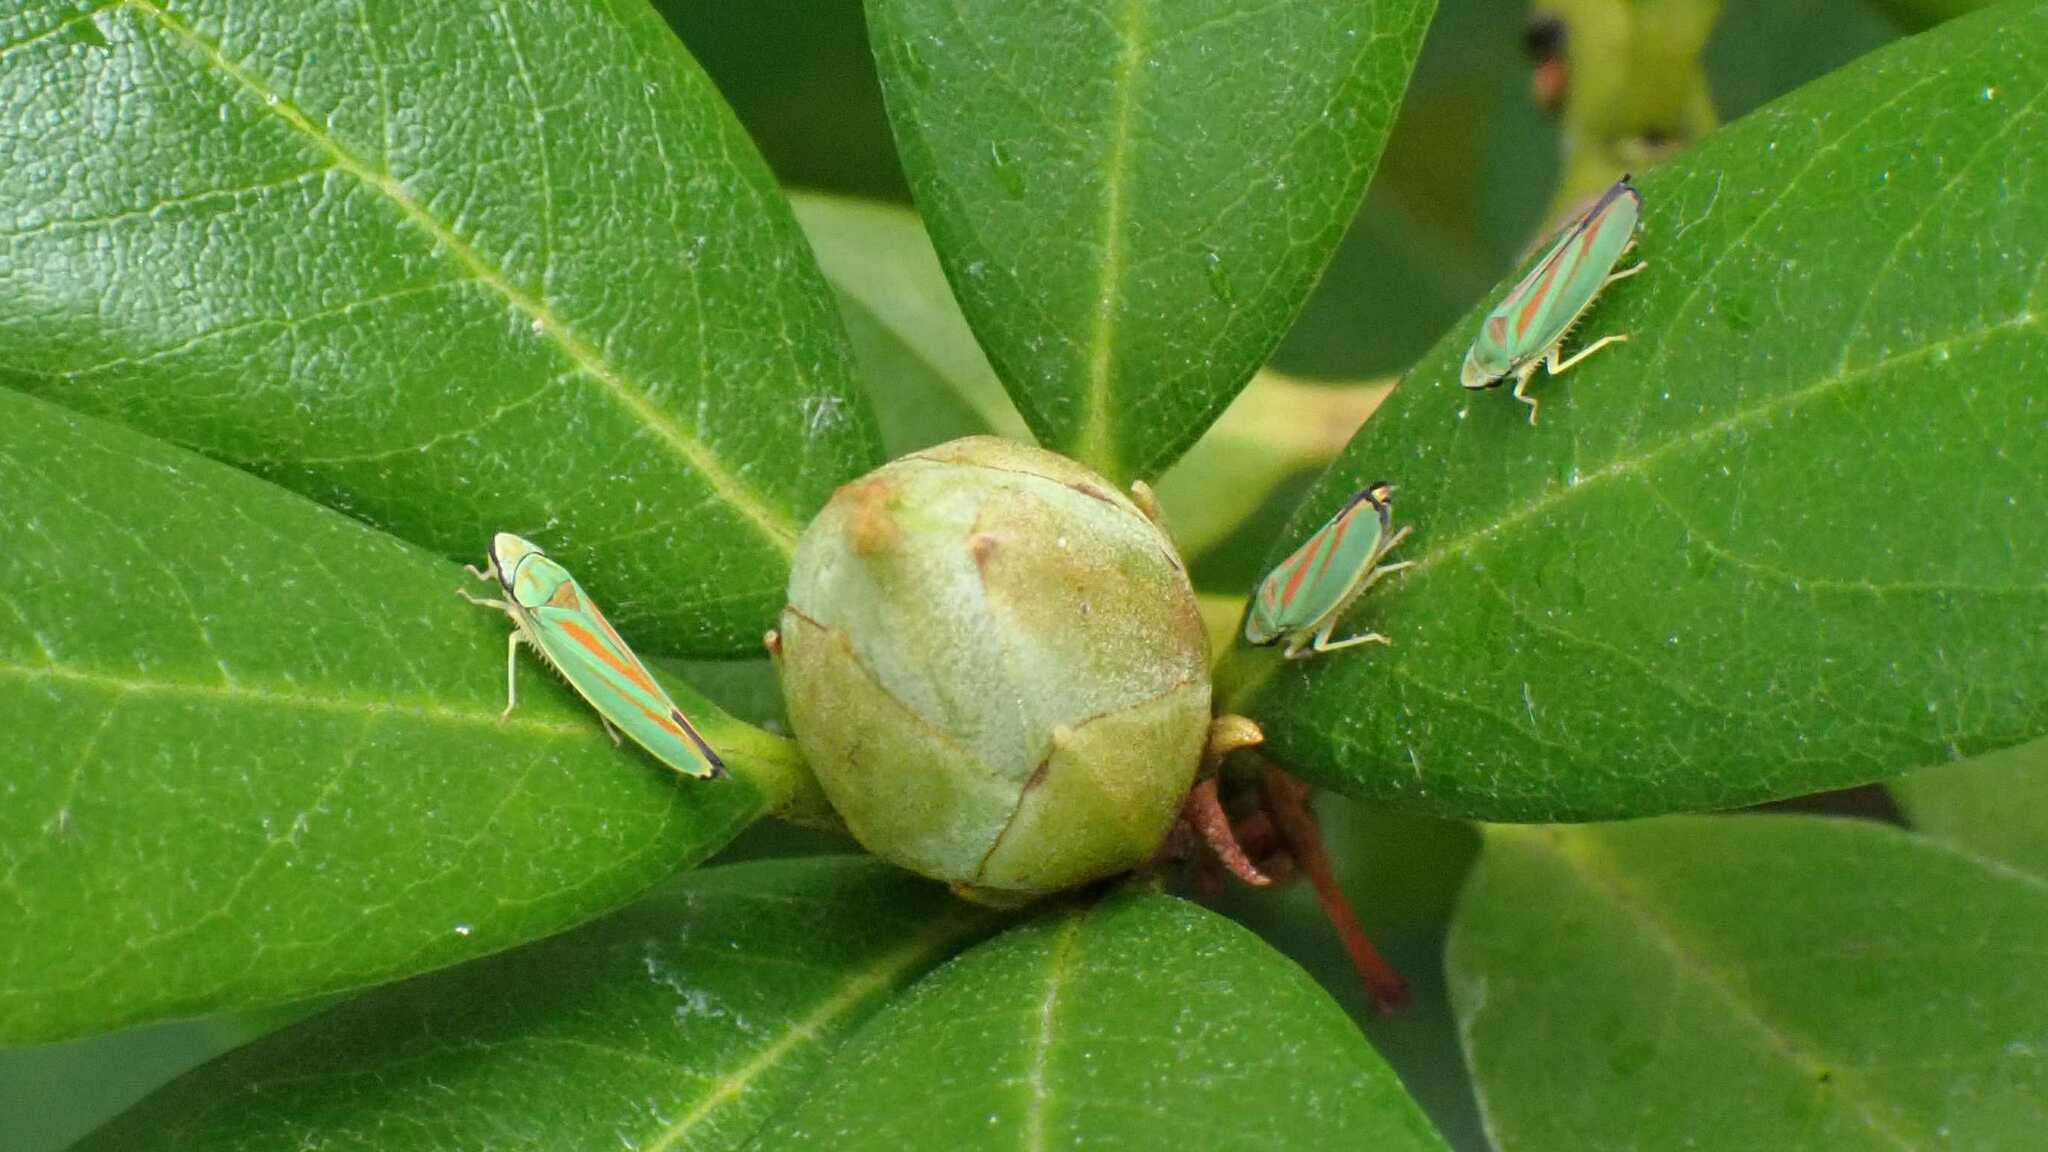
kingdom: Animalia
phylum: Arthropoda
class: Insecta
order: Hemiptera
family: Cicadellidae
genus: Graphocephala
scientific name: Graphocephala fennahi
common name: Rhododendron leafhopper
